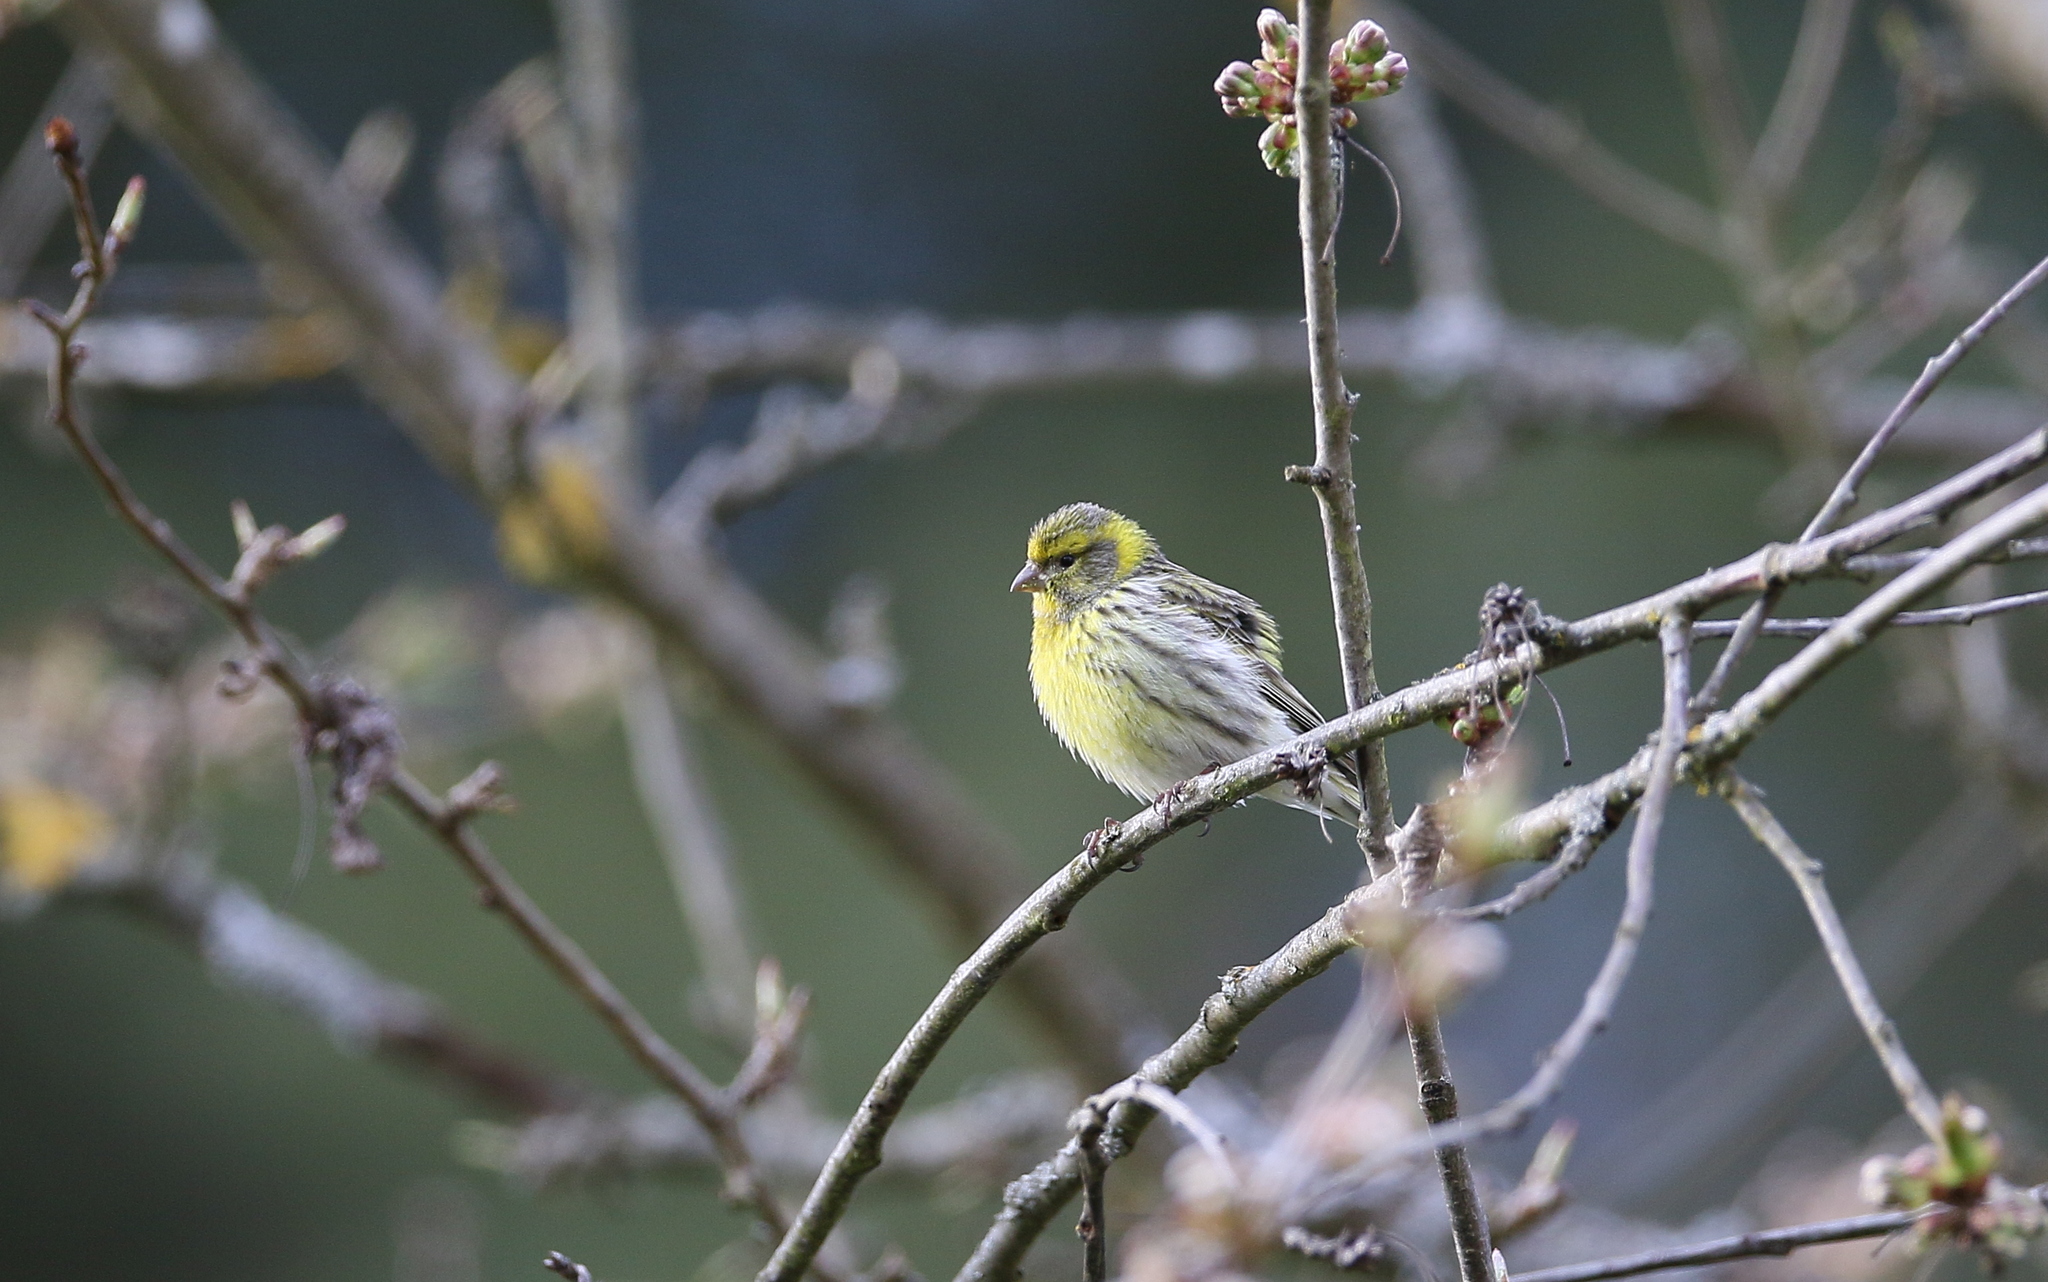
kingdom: Animalia
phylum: Chordata
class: Aves
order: Passeriformes
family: Fringillidae
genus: Serinus
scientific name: Serinus serinus
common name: European serin
